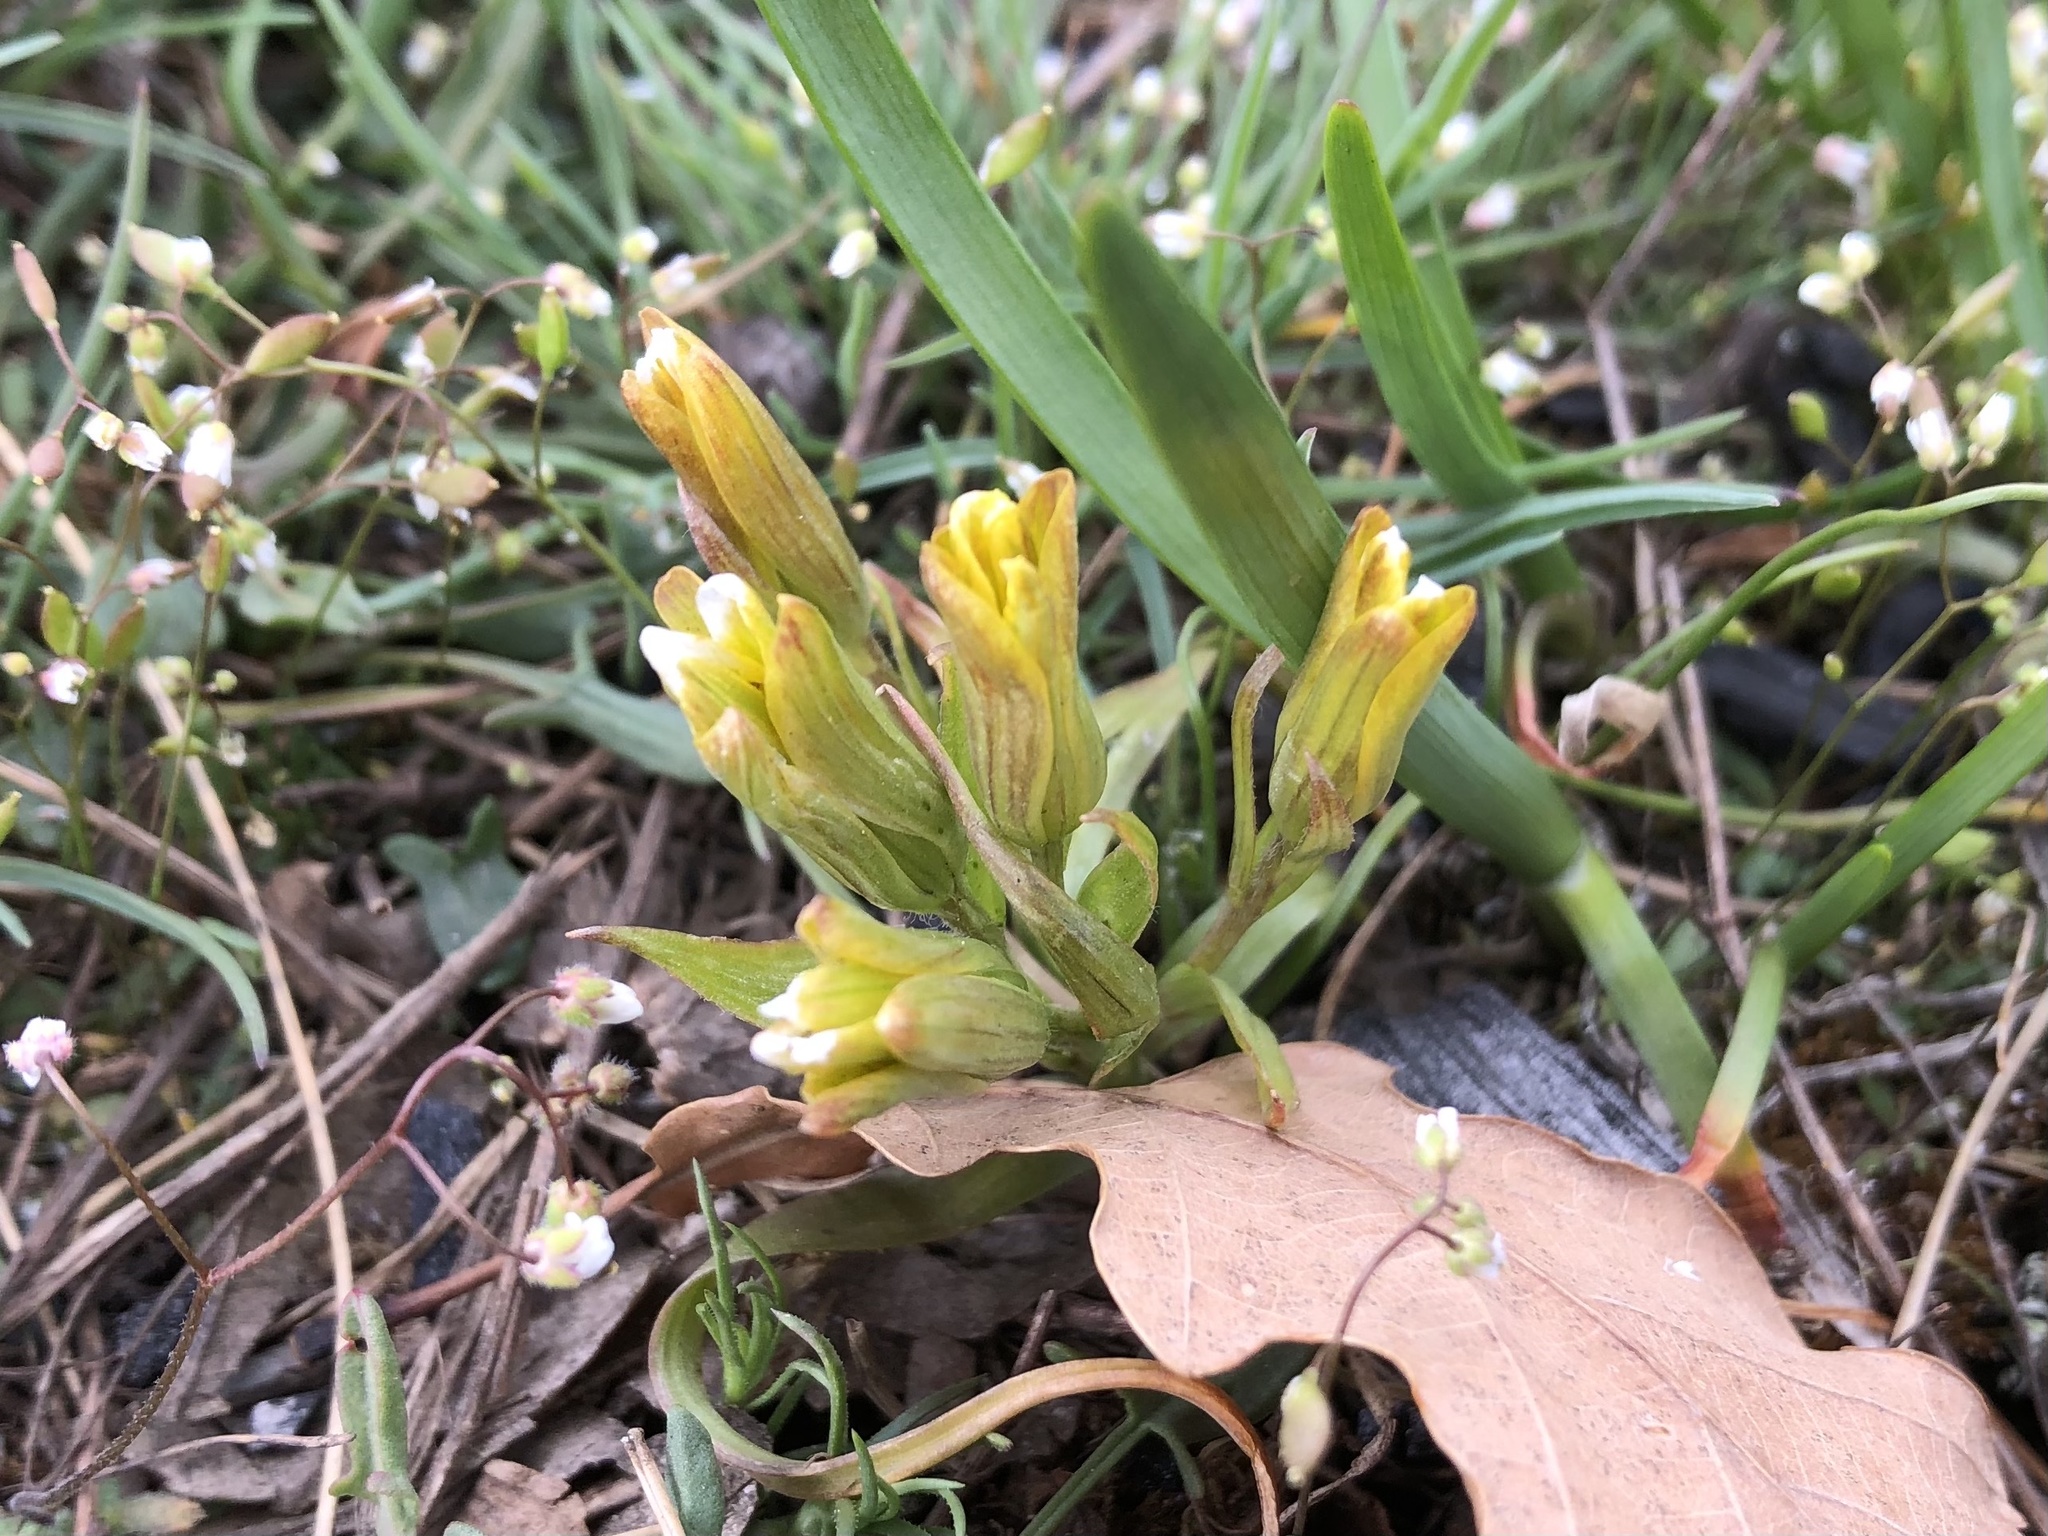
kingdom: Plantae
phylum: Tracheophyta
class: Liliopsida
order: Liliales
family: Liliaceae
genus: Gagea
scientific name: Gagea bohemica
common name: Early star-of-bethlehem
